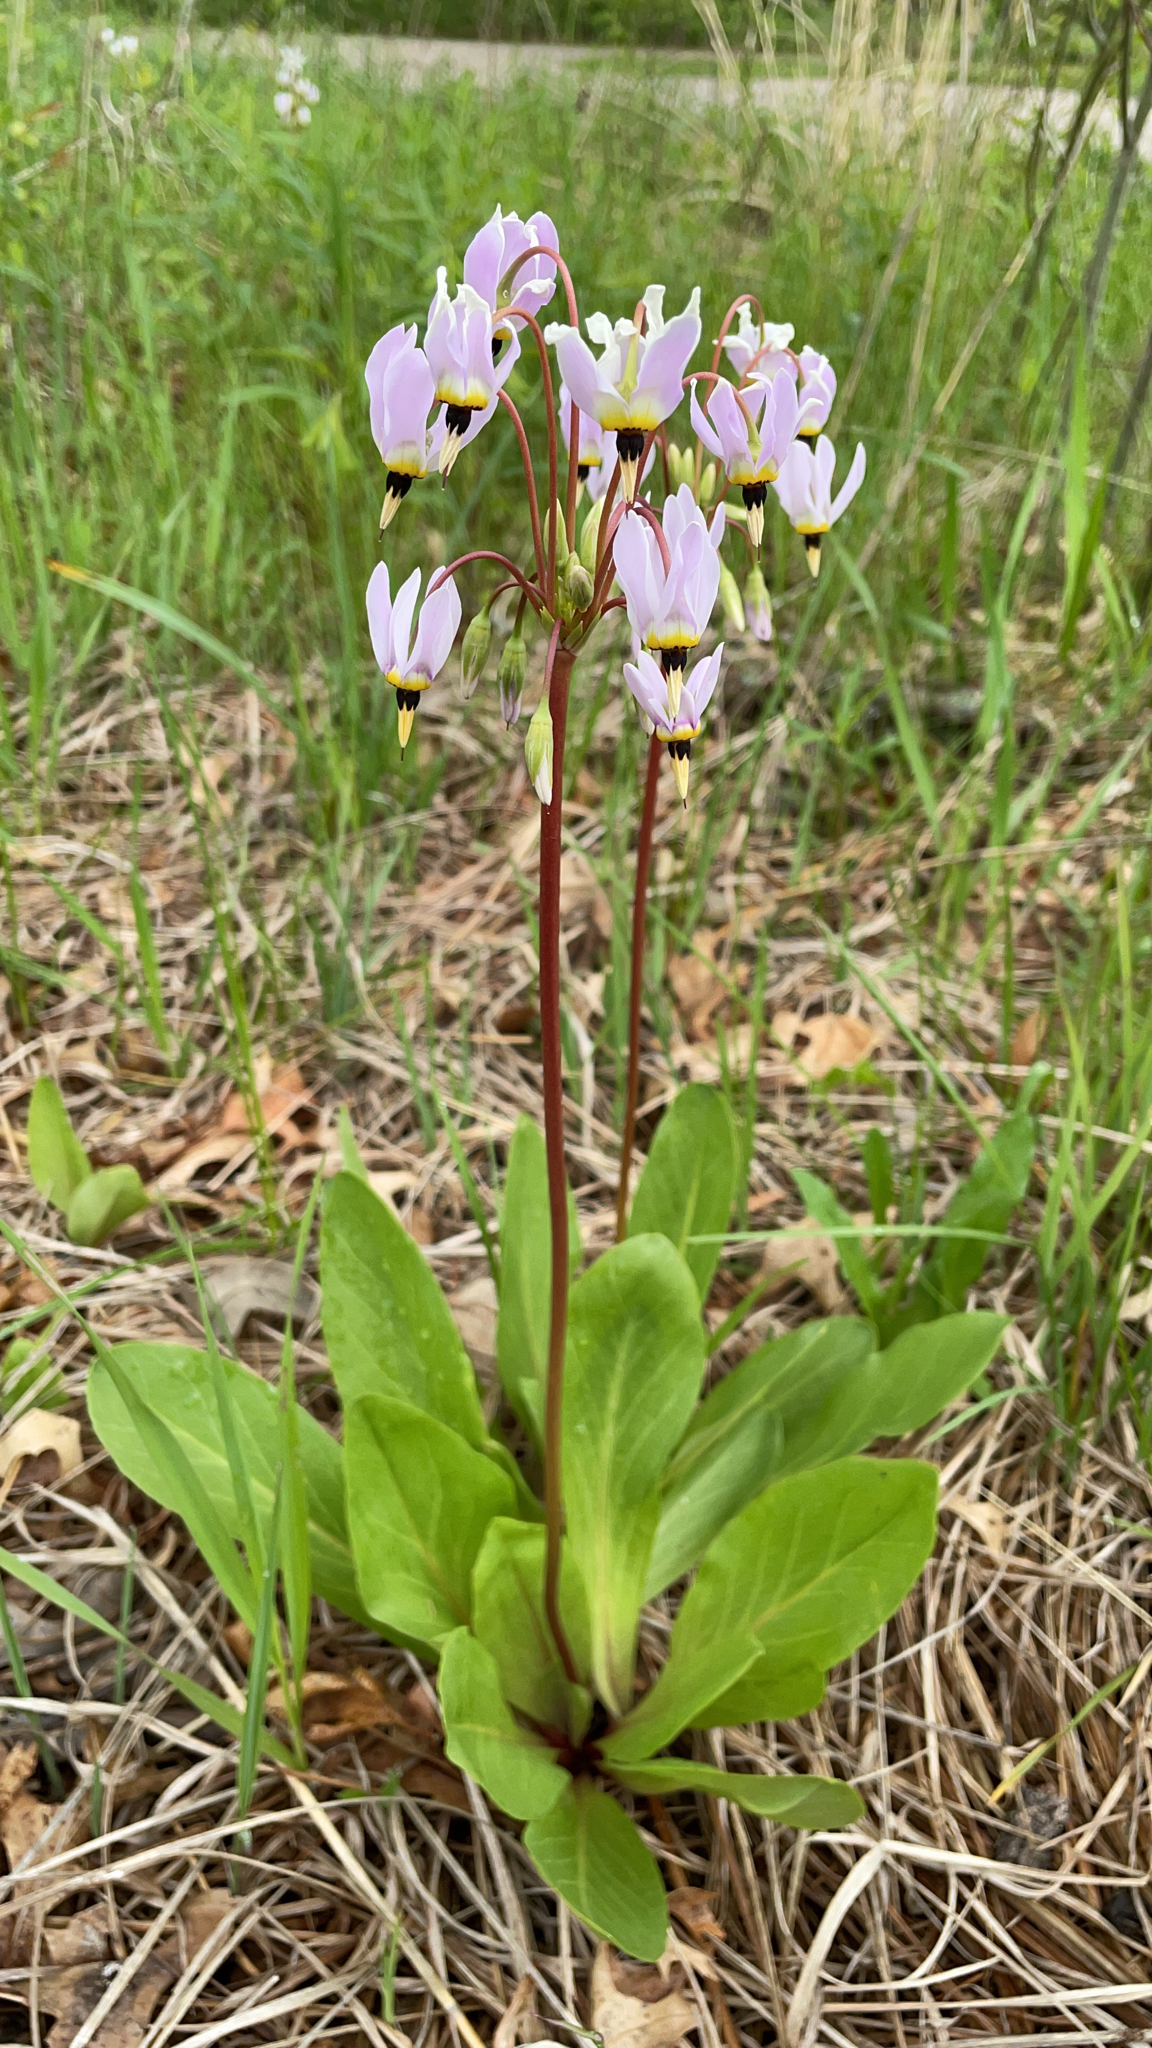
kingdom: Plantae
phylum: Tracheophyta
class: Magnoliopsida
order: Ericales
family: Primulaceae
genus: Dodecatheon
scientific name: Dodecatheon meadia
